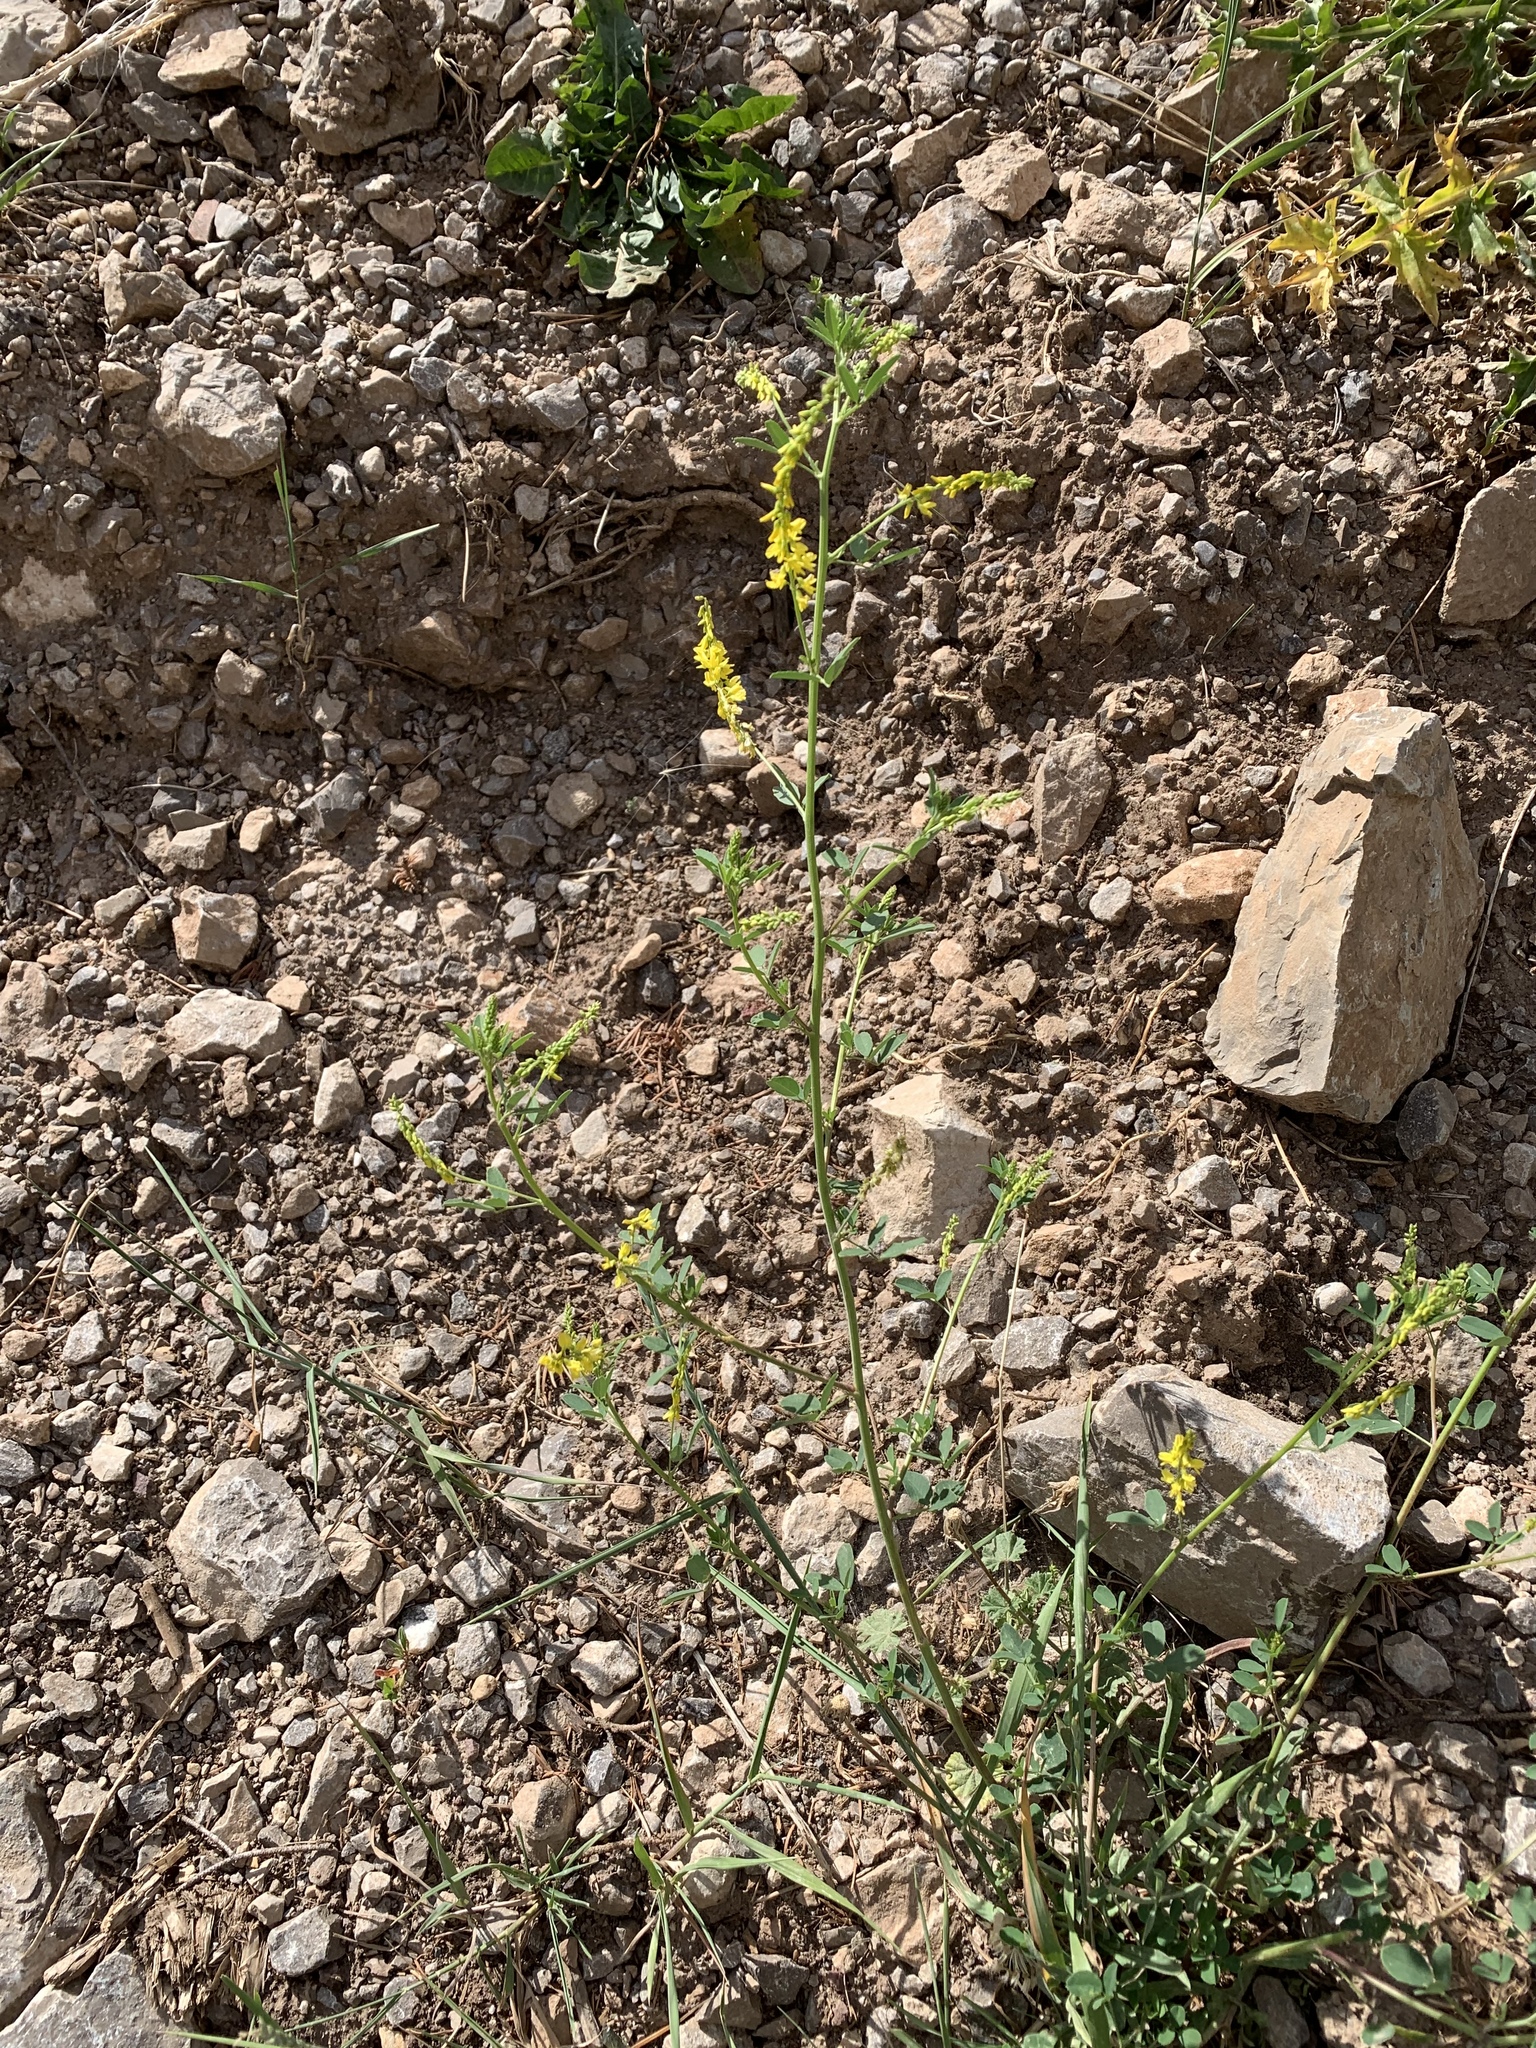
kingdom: Plantae
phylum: Tracheophyta
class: Magnoliopsida
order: Fabales
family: Fabaceae
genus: Melilotus
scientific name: Melilotus officinalis
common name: Sweetclover
